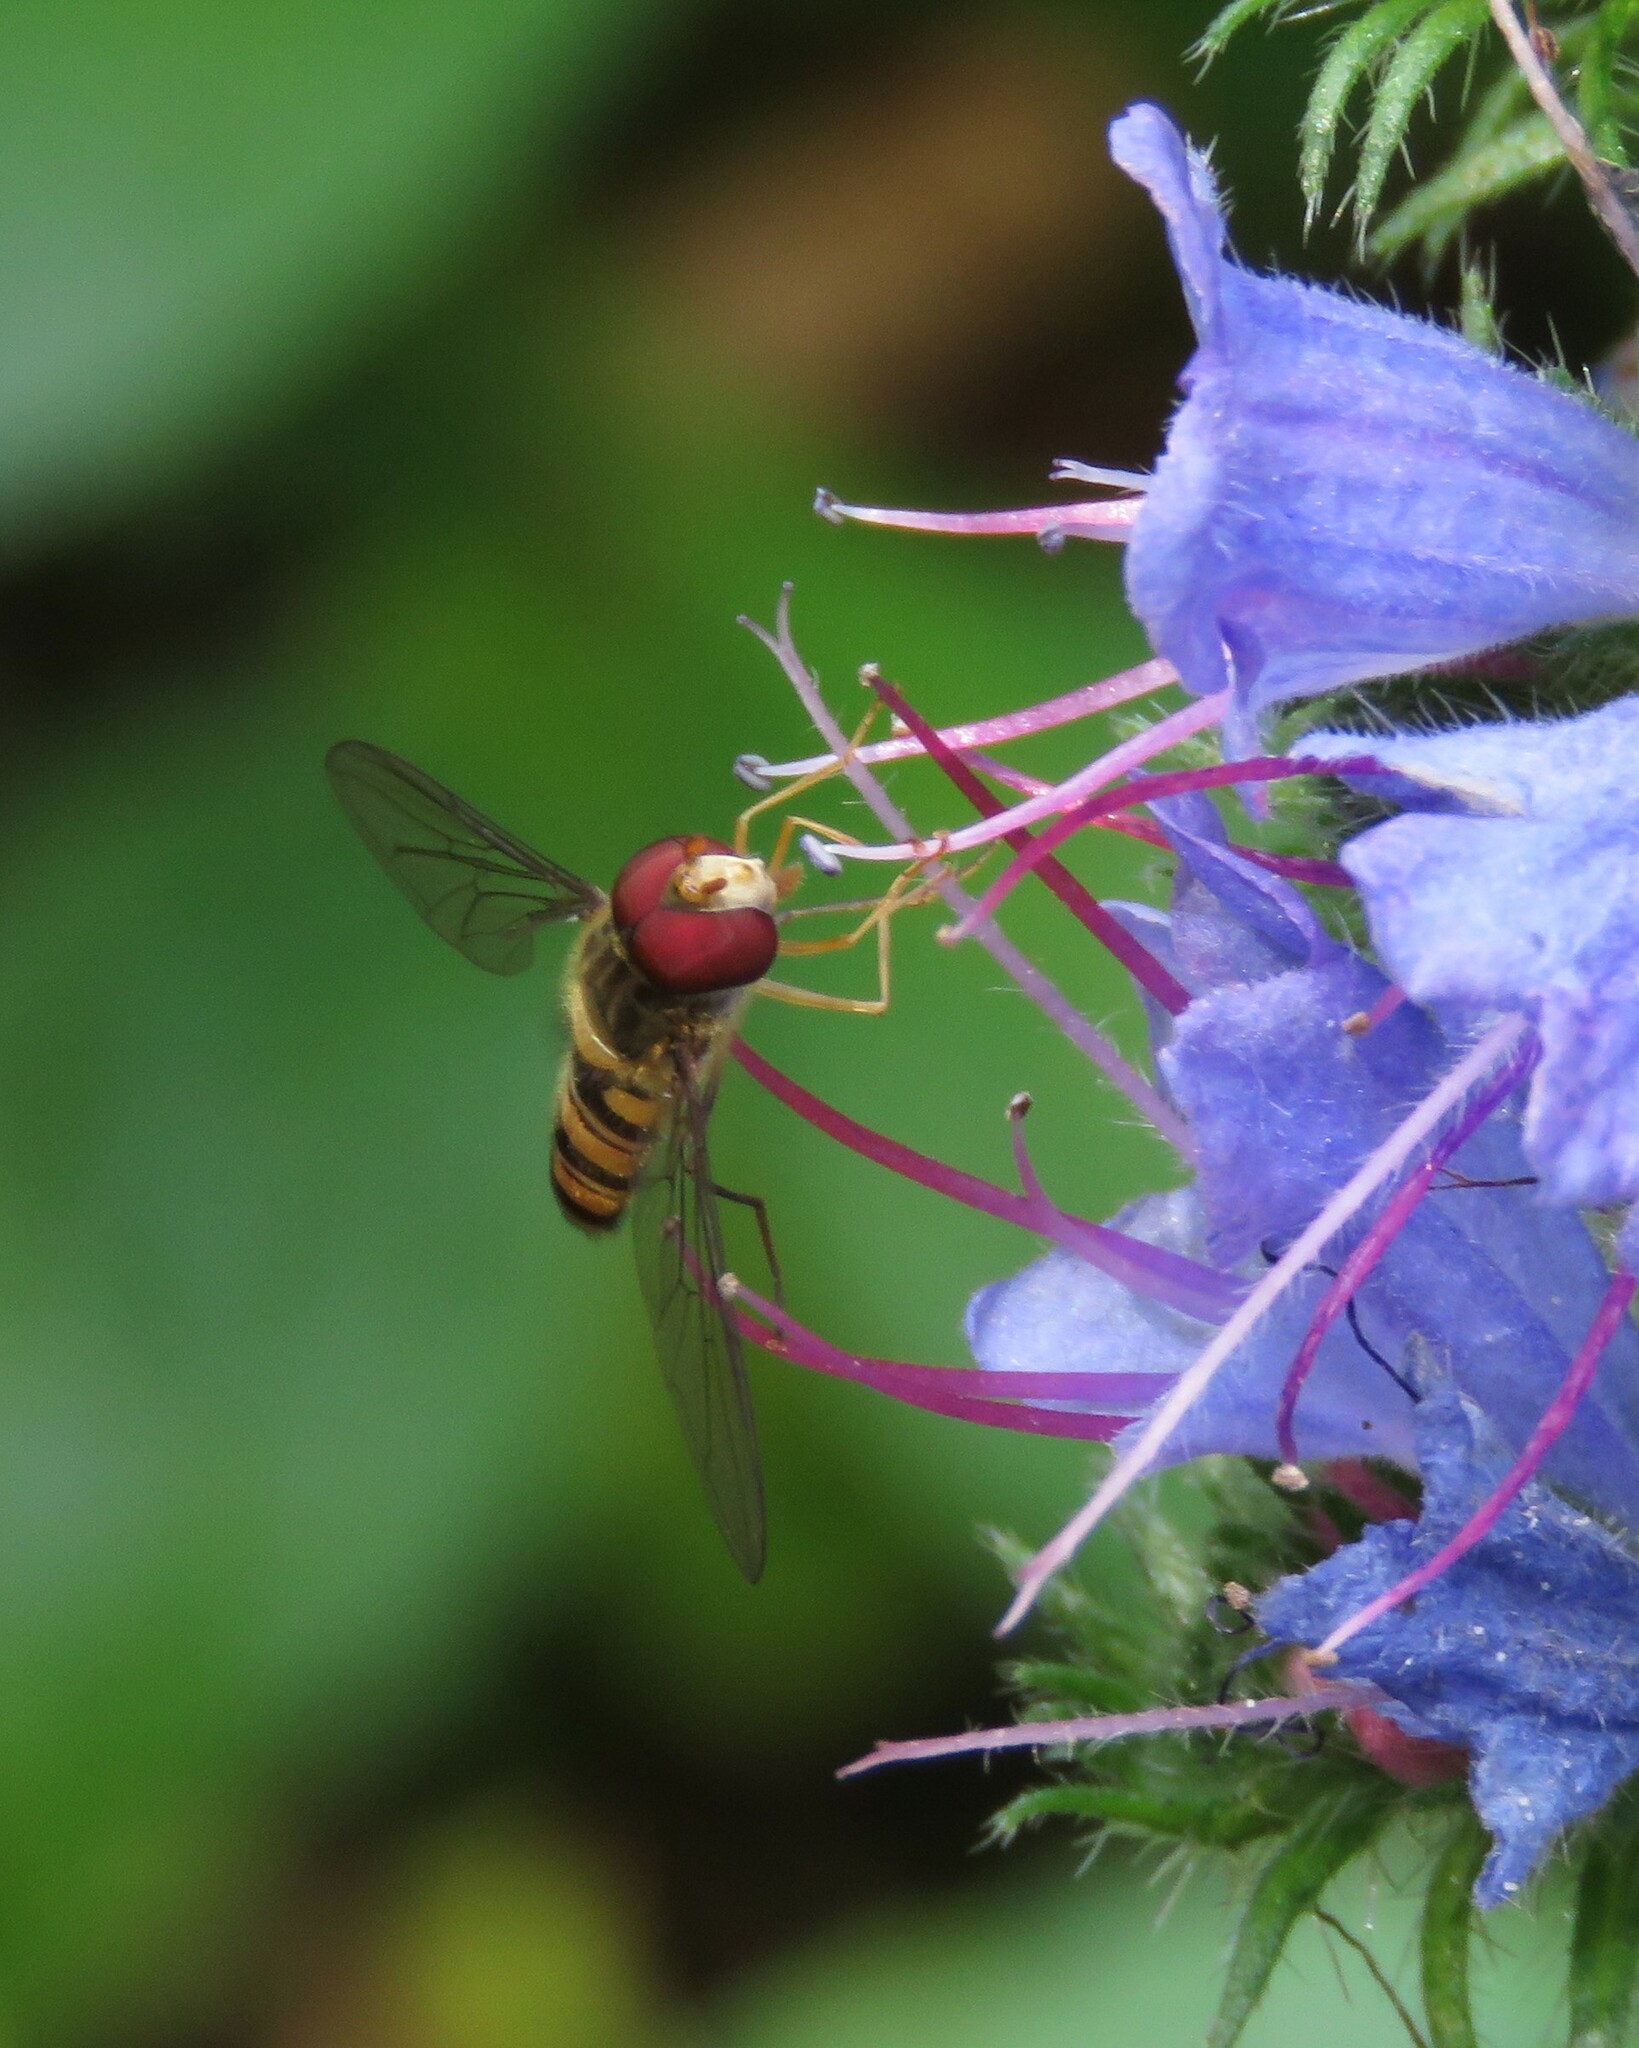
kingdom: Animalia
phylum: Arthropoda
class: Insecta
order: Diptera
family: Syrphidae
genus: Episyrphus
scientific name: Episyrphus balteatus
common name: Marmalade hoverfly
